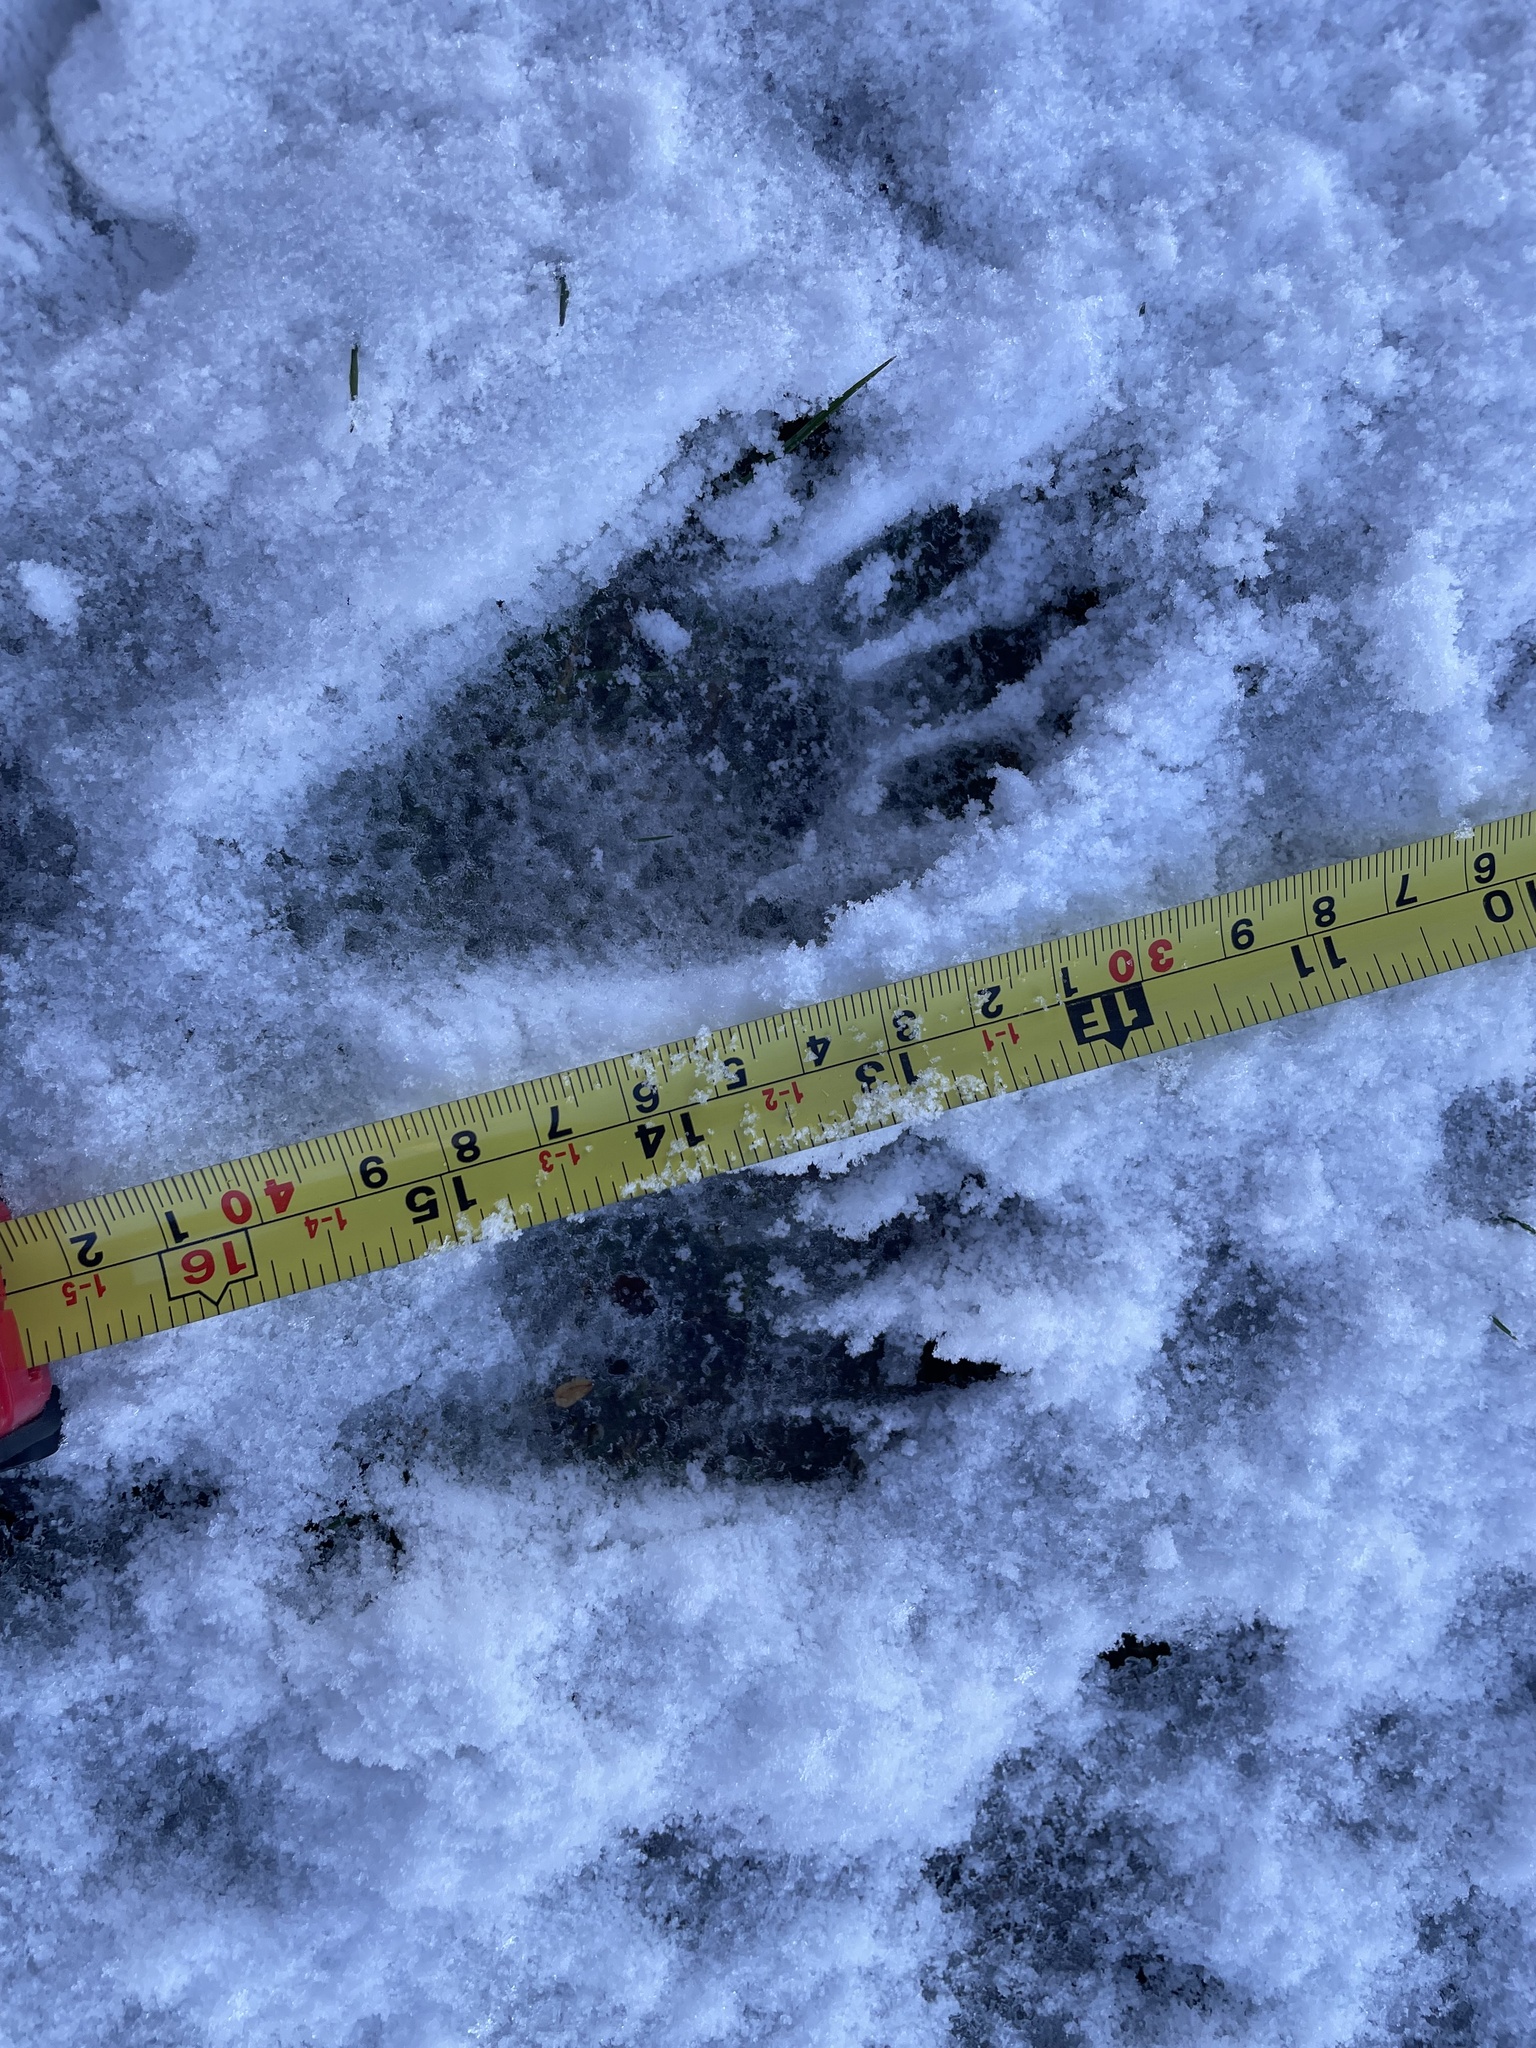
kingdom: Animalia
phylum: Chordata
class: Mammalia
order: Carnivora
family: Procyonidae
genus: Procyon
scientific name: Procyon lotor
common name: Raccoon
